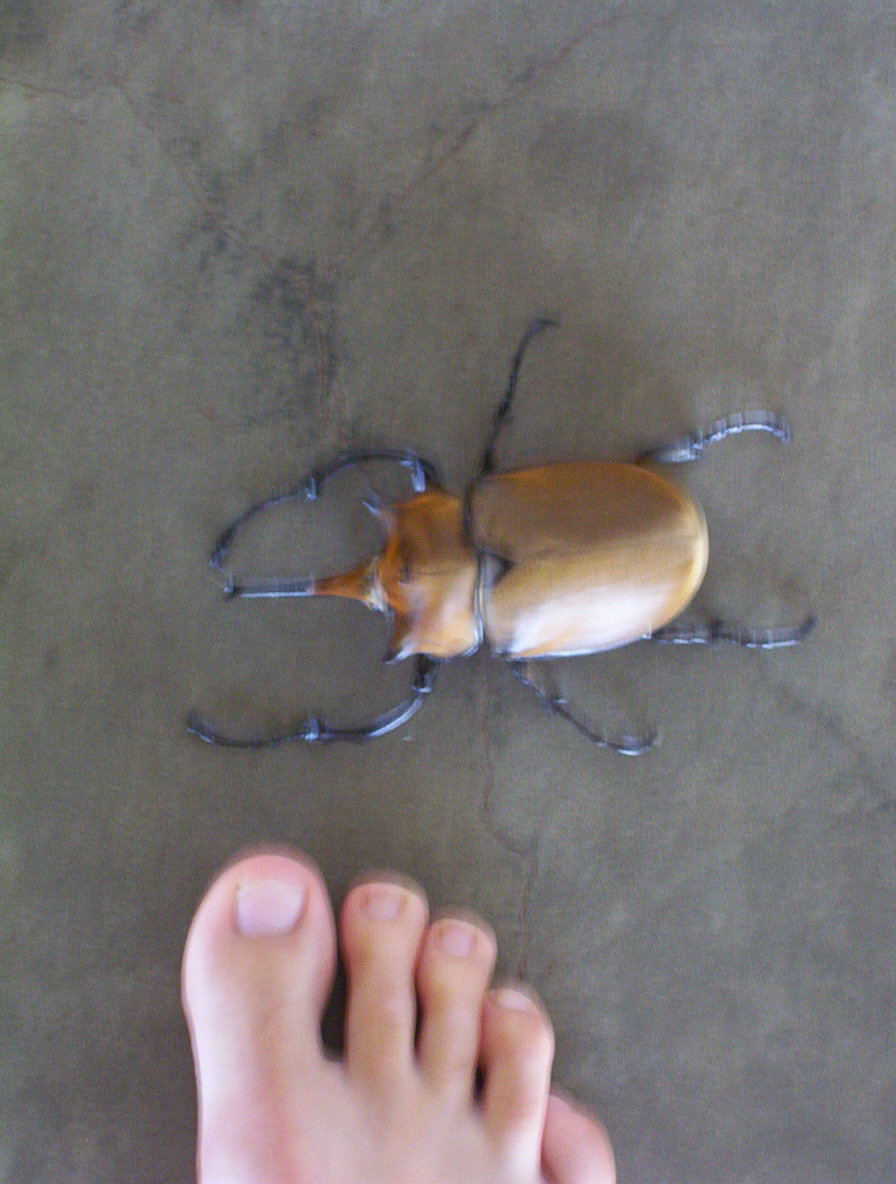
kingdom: Animalia
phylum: Arthropoda
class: Insecta
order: Coleoptera
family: Scarabaeidae
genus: Megasoma
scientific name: Megasoma elephas
